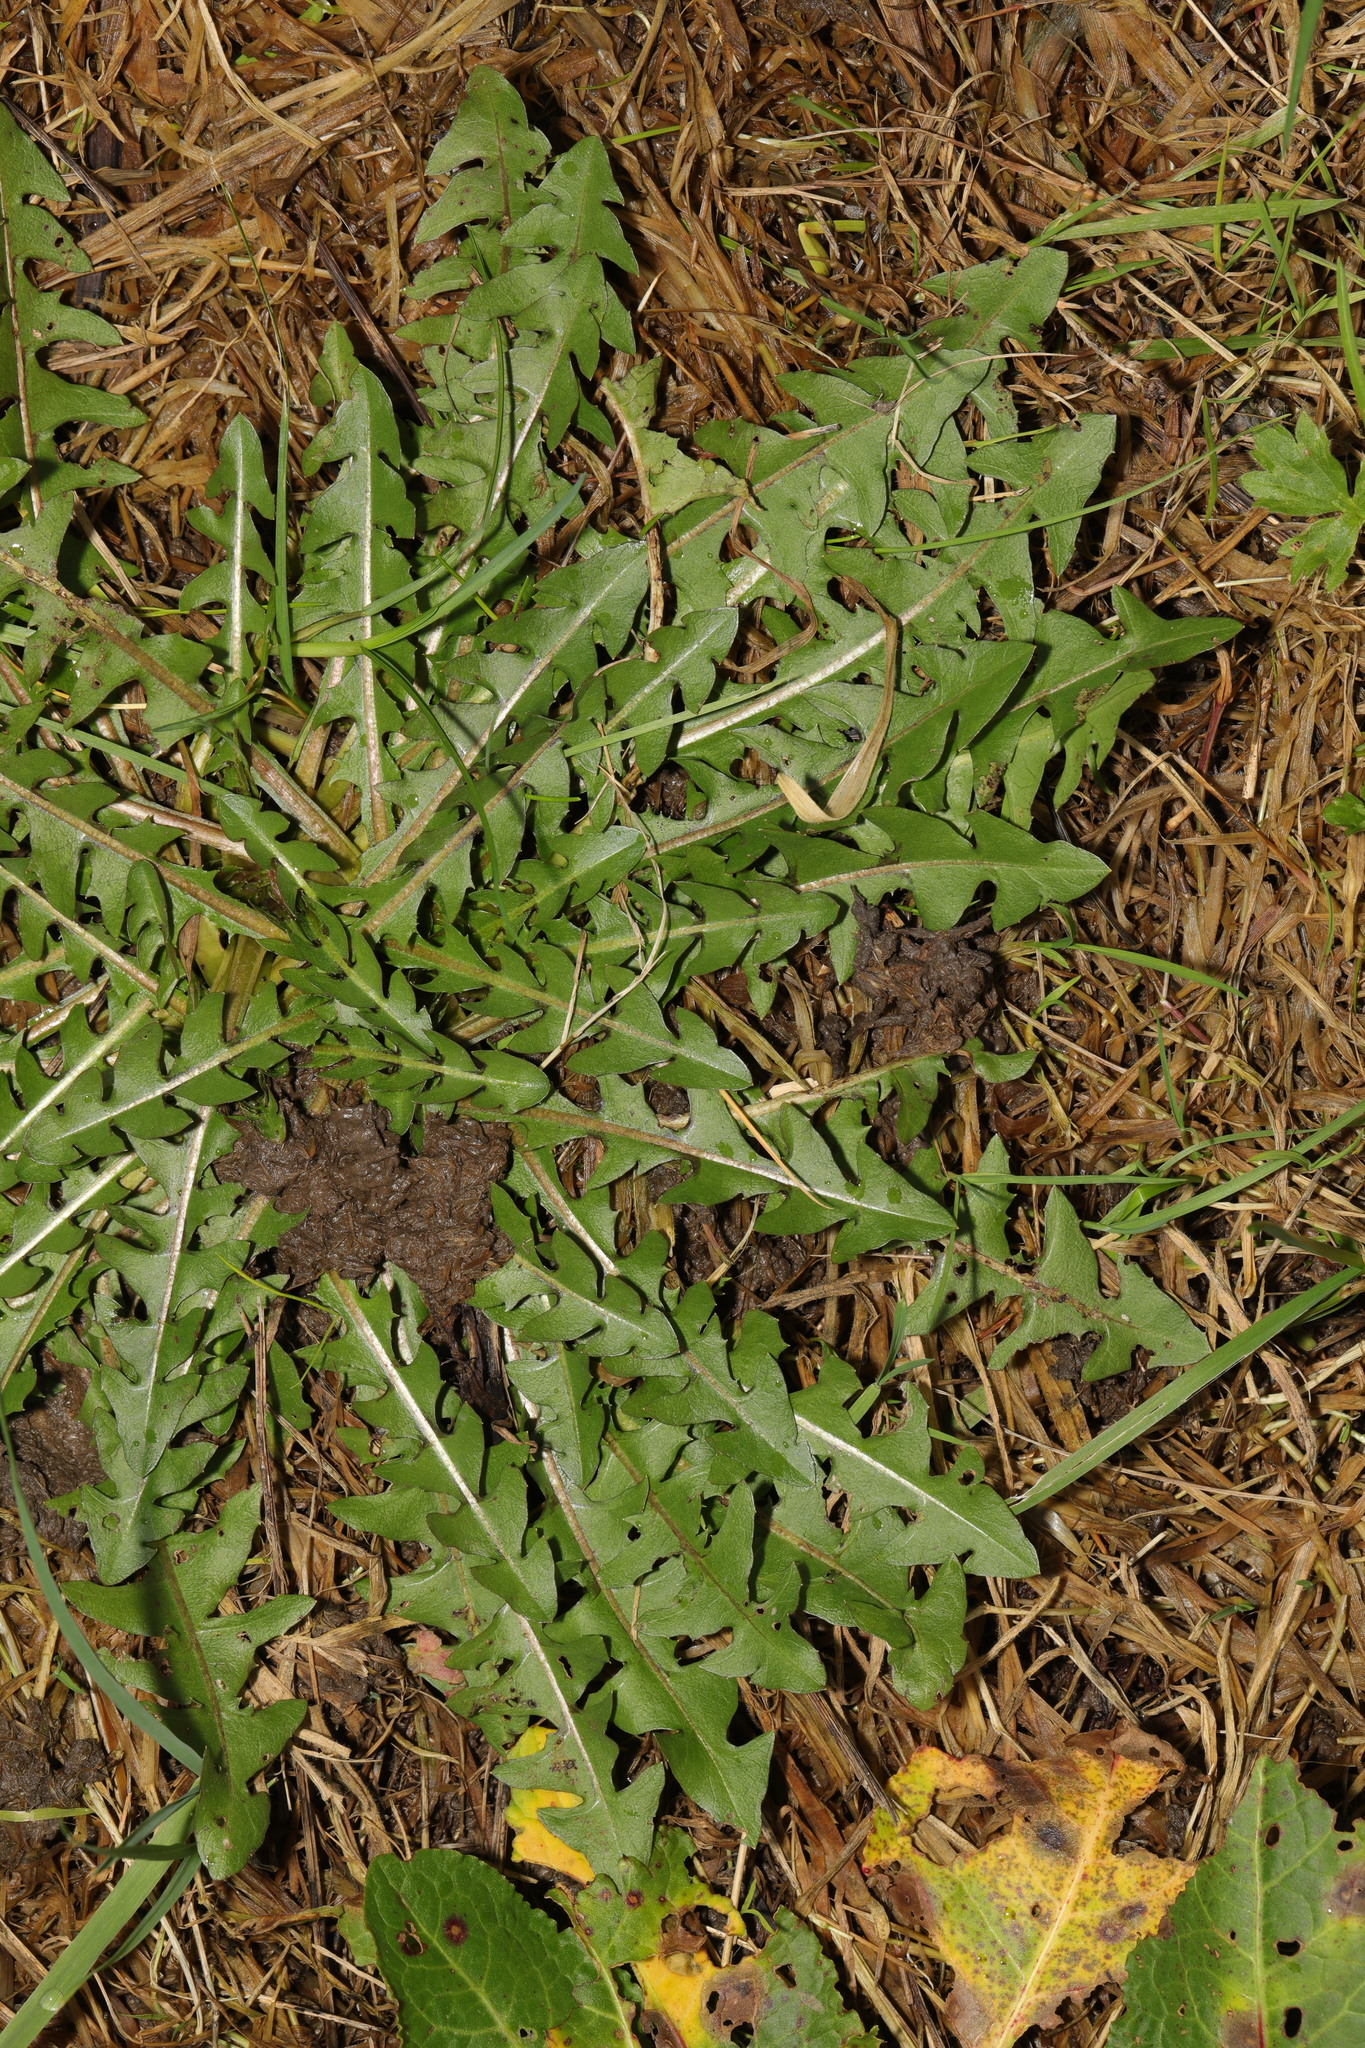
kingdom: Plantae
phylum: Tracheophyta
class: Magnoliopsida
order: Asterales
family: Asteraceae
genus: Taraxacum
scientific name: Taraxacum officinale
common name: Common dandelion
